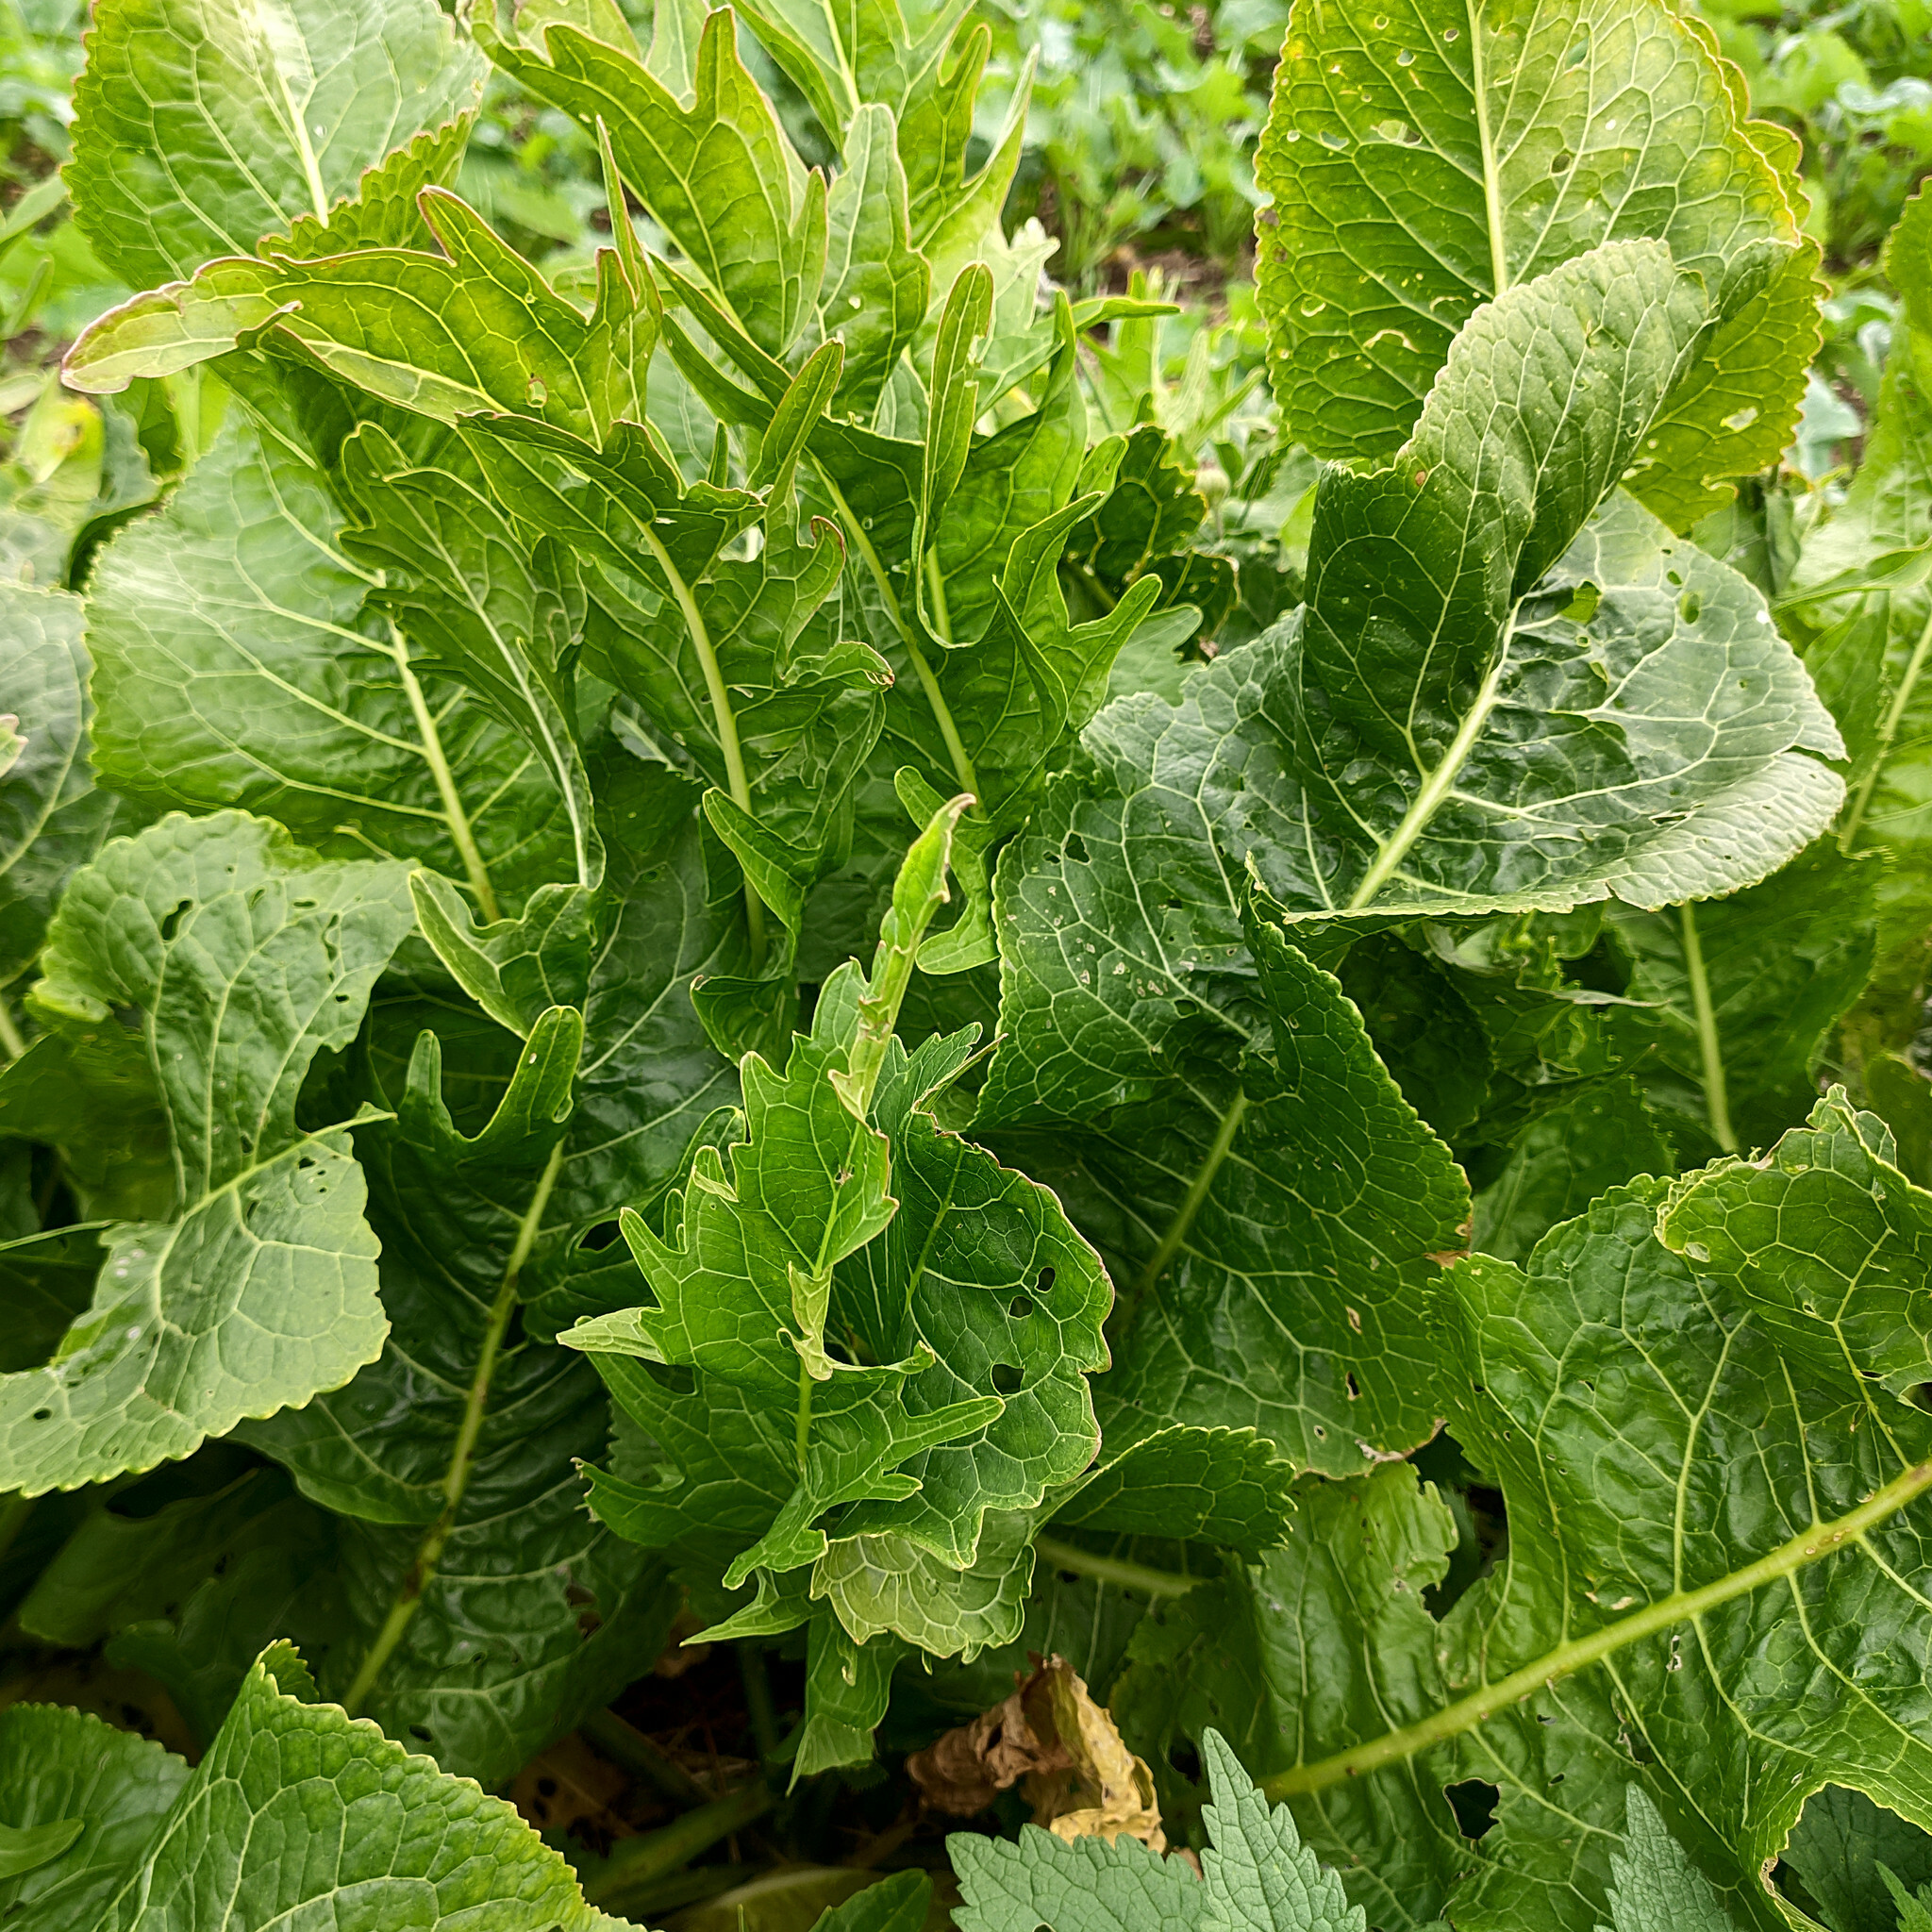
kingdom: Plantae
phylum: Tracheophyta
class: Magnoliopsida
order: Brassicales
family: Brassicaceae
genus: Armoracia
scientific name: Armoracia rusticana
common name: Horseradish
